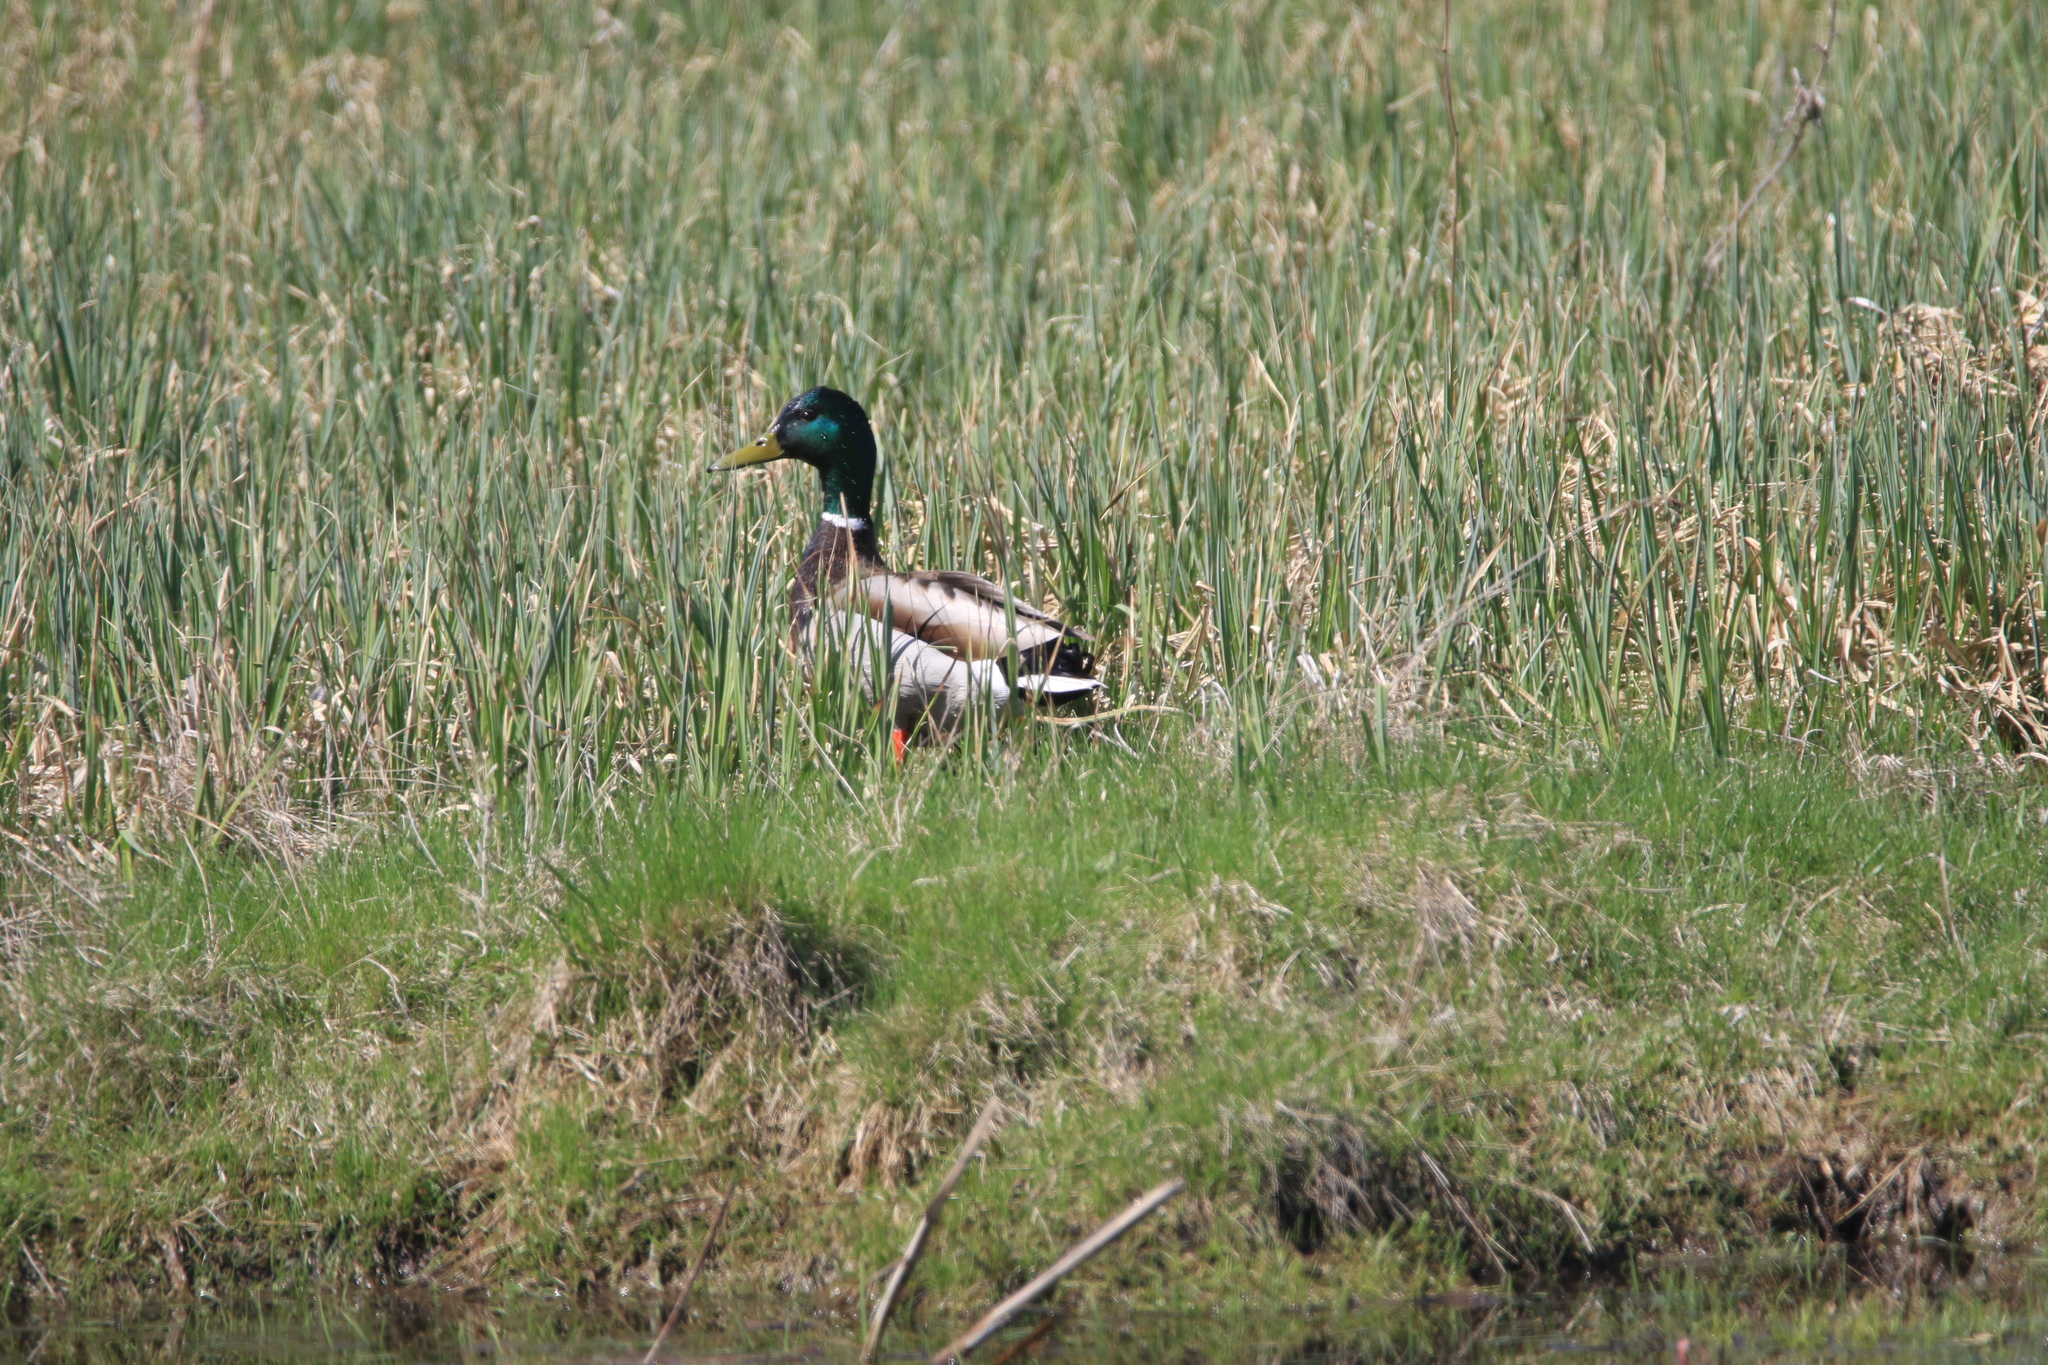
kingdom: Animalia
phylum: Chordata
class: Aves
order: Anseriformes
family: Anatidae
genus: Anas
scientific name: Anas platyrhynchos
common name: Mallard
